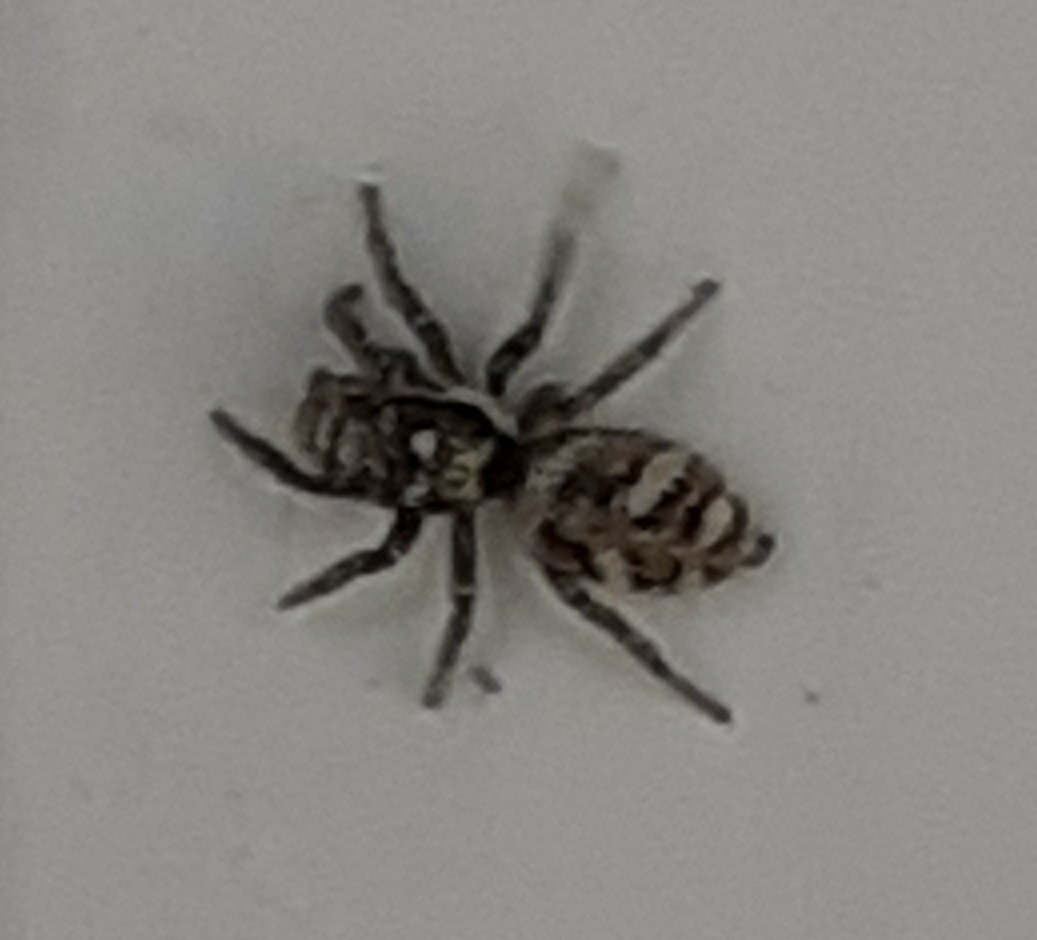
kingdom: Animalia
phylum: Arthropoda
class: Arachnida
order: Araneae
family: Salticidae
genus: Salticus
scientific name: Salticus scenicus
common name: Zebra jumper
